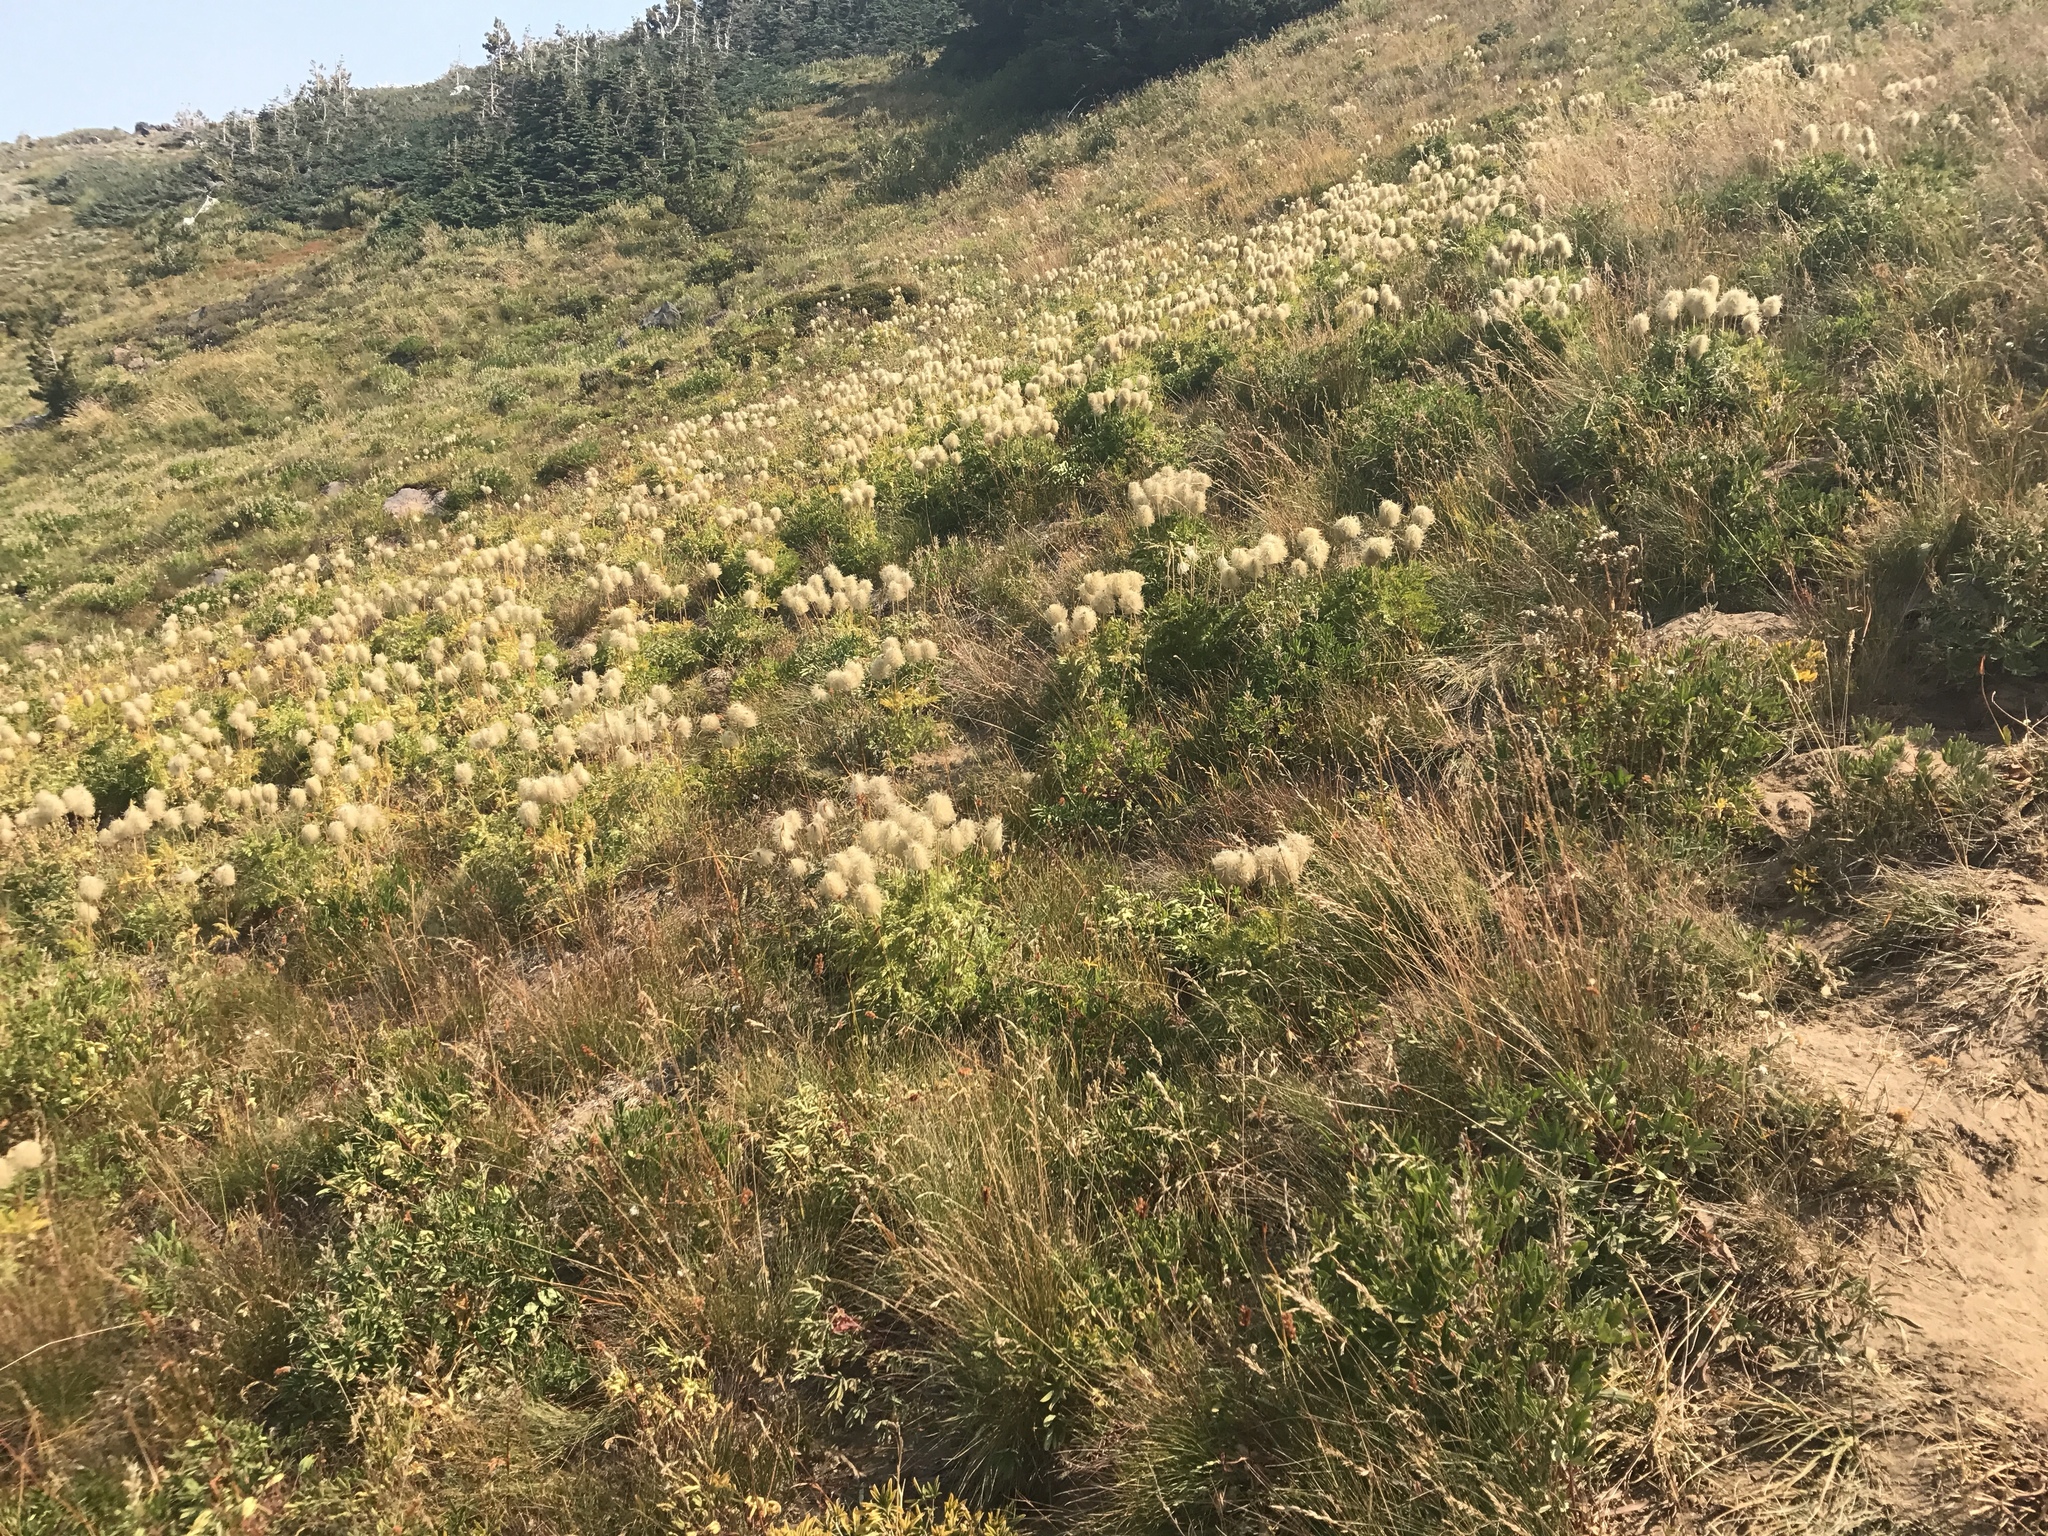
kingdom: Plantae
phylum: Tracheophyta
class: Magnoliopsida
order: Ranunculales
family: Ranunculaceae
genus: Pulsatilla
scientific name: Pulsatilla occidentalis
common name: Mountain pasqueflower
